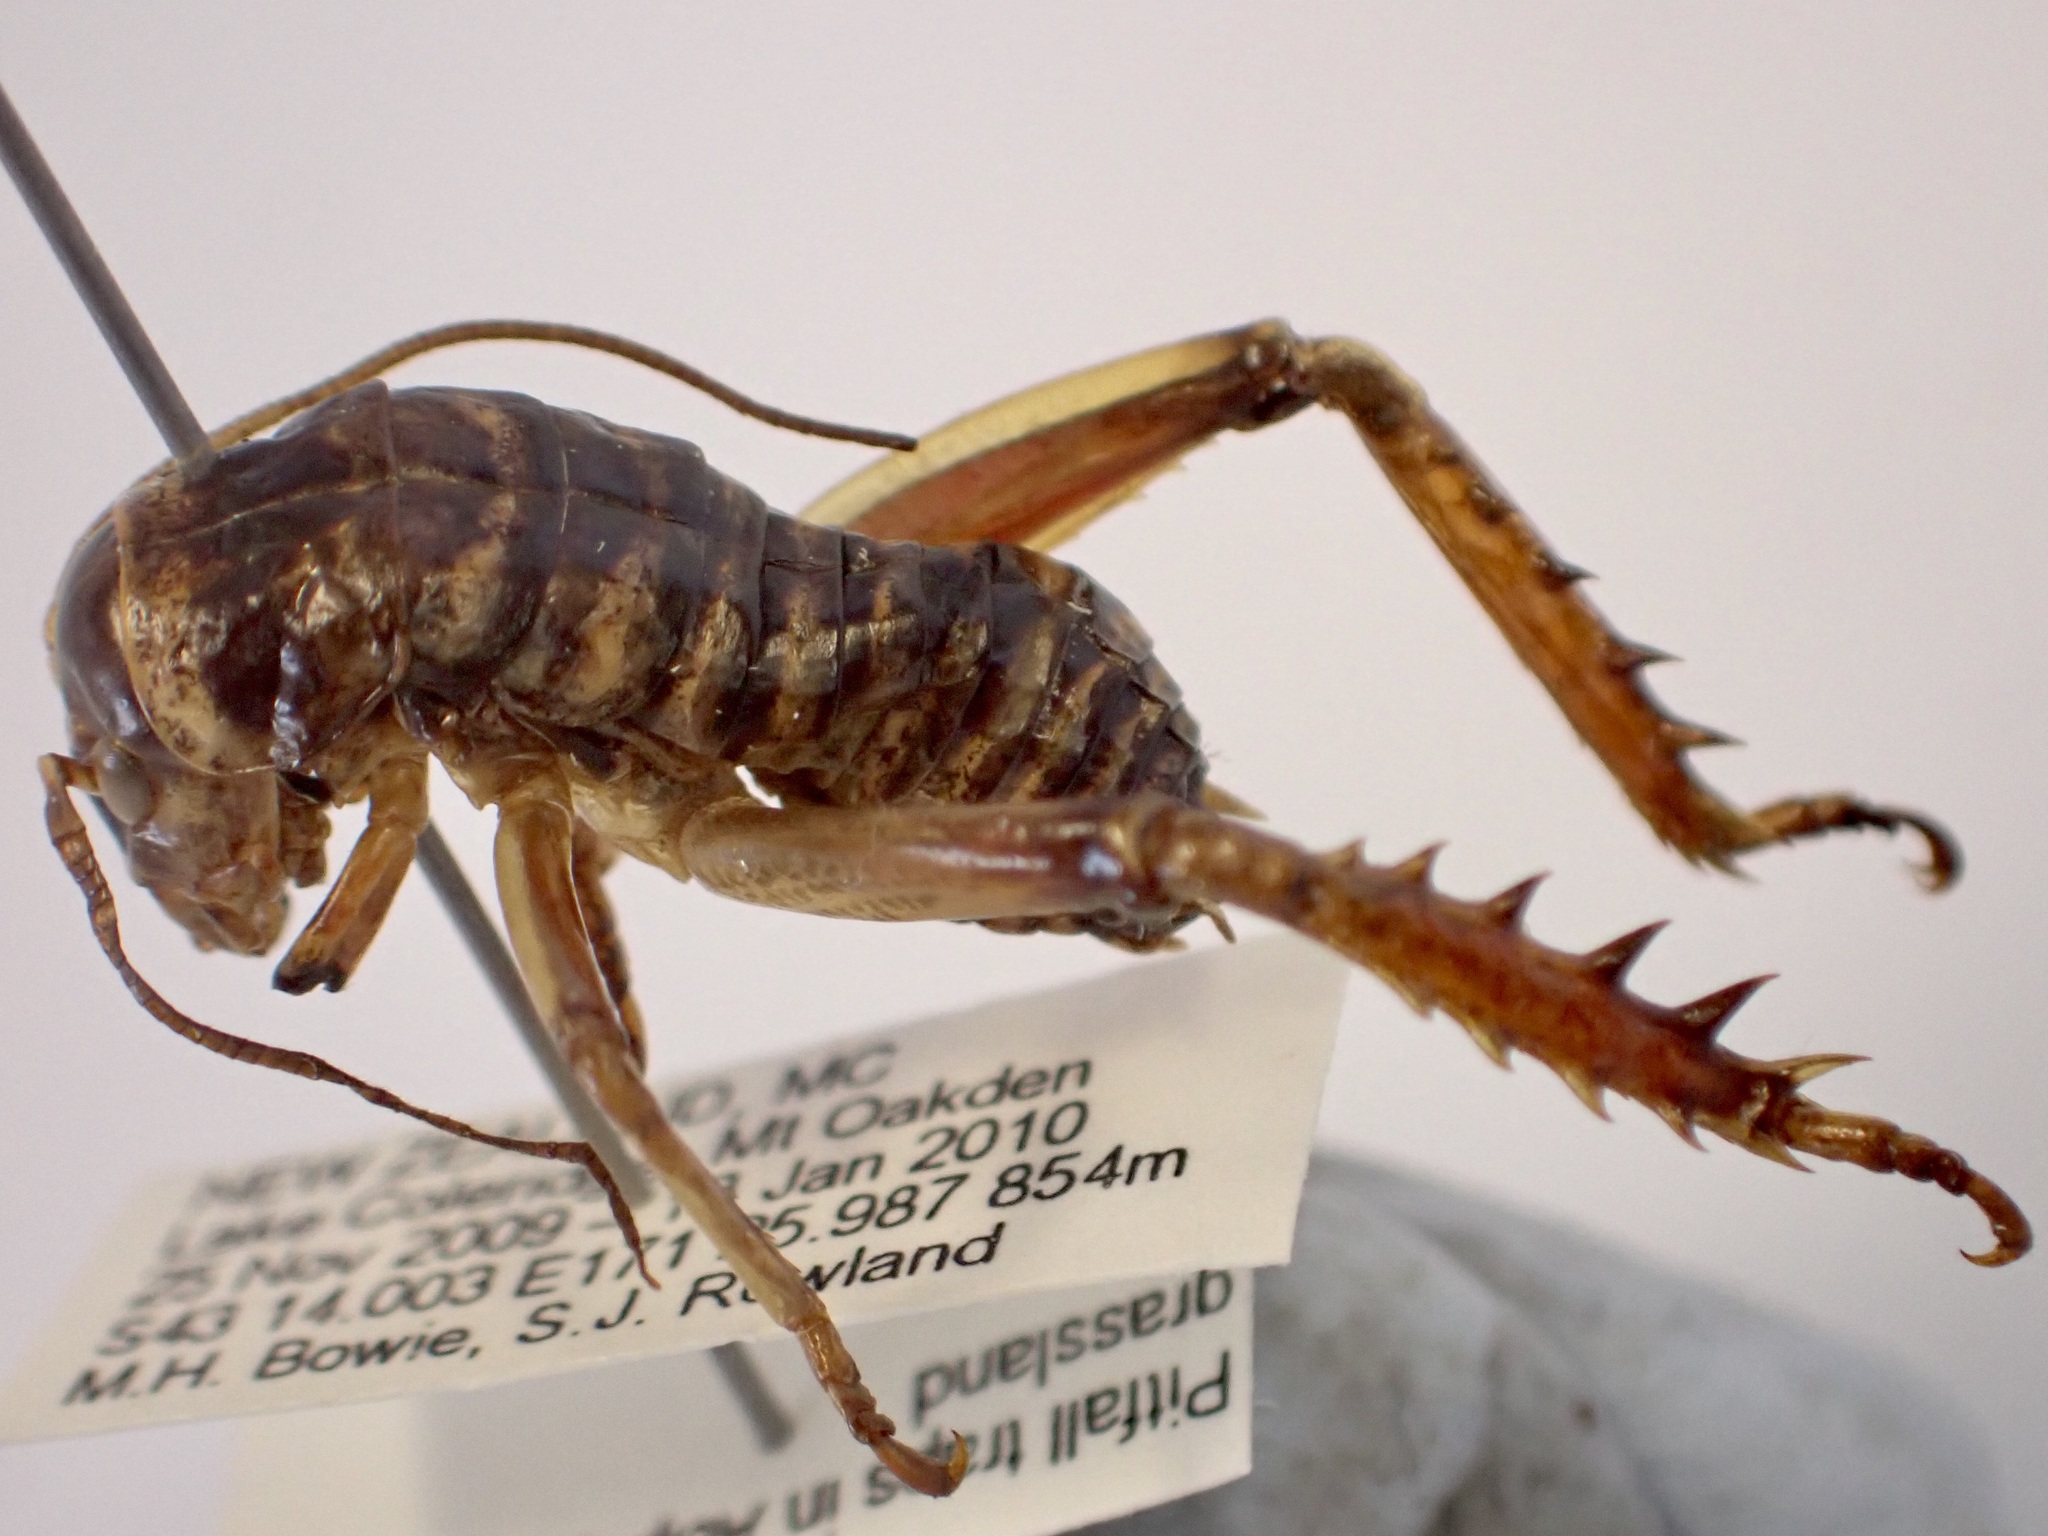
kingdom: Animalia
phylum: Arthropoda
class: Insecta
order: Orthoptera
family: Anostostomatidae
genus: Hemideina
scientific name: Hemideina maori
